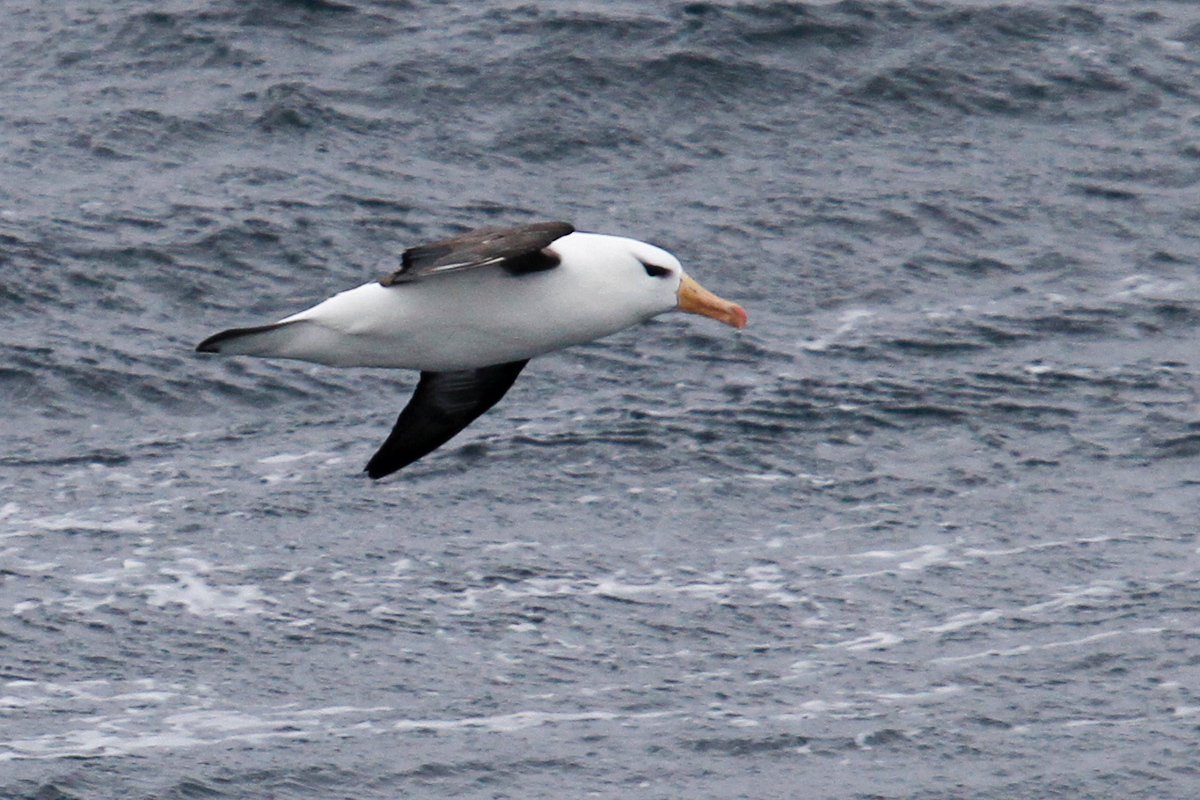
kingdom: Animalia
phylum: Chordata
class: Aves
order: Procellariiformes
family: Diomedeidae
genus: Thalassarche
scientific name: Thalassarche melanophris
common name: Black-browed albatross
